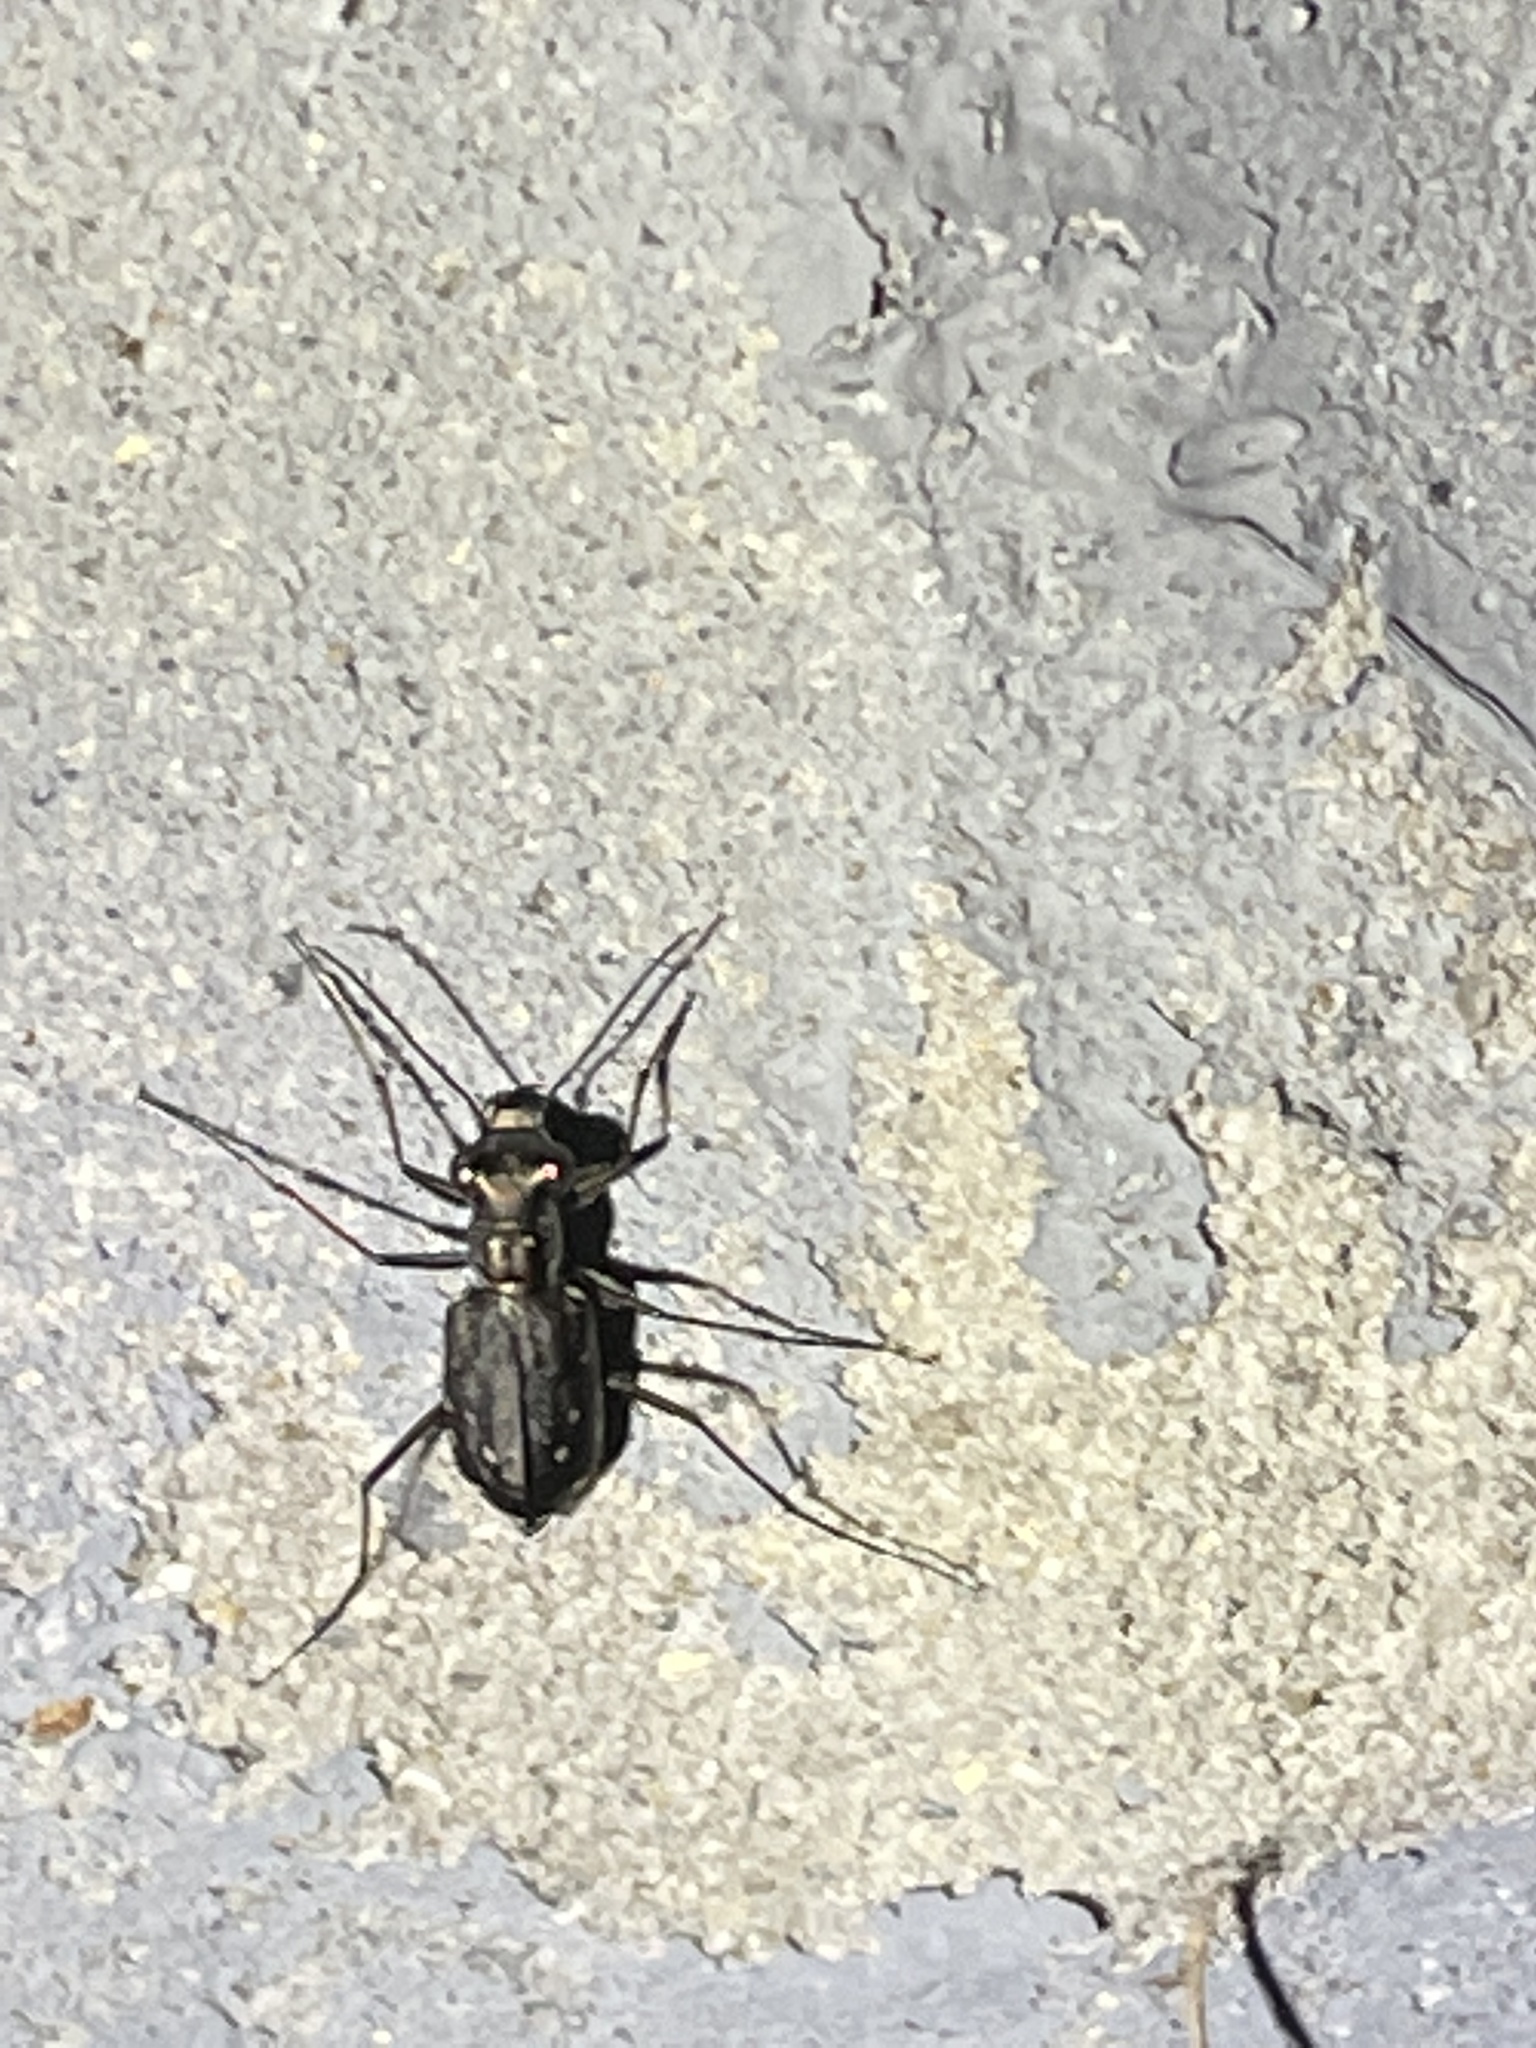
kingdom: Animalia
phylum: Arthropoda
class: Insecta
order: Coleoptera
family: Carabidae
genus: Cicindela
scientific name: Cicindela punctulata
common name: Punctured tiger beetle
